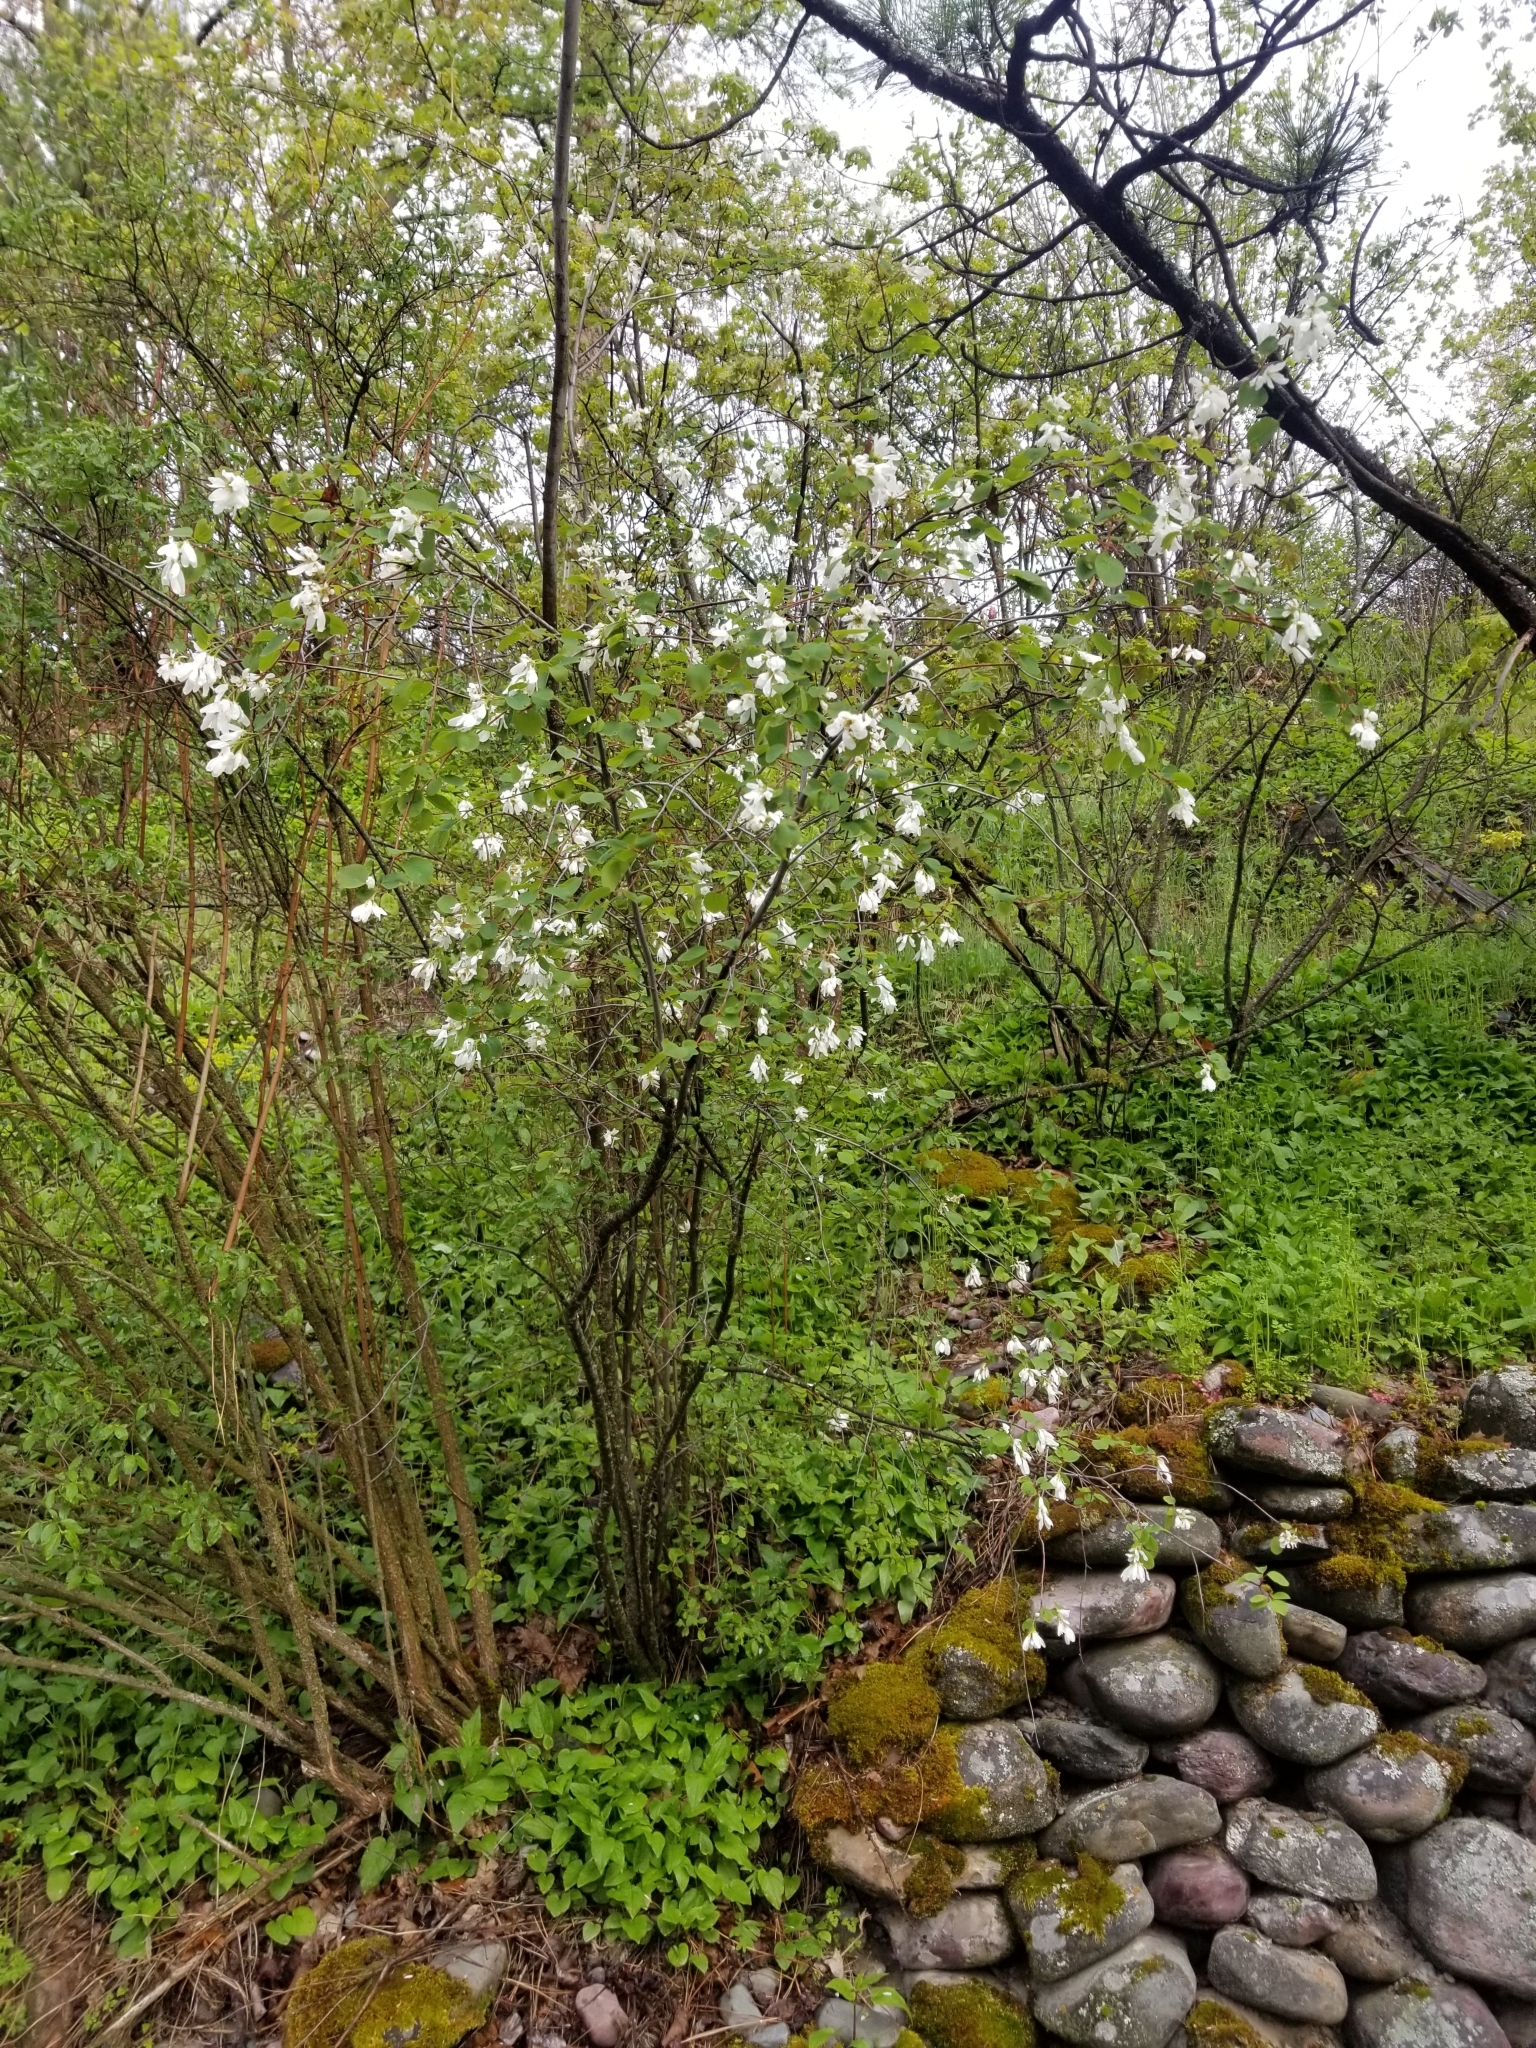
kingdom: Plantae
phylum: Tracheophyta
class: Magnoliopsida
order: Rosales
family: Rosaceae
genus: Amelanchier
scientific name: Amelanchier alnifolia
